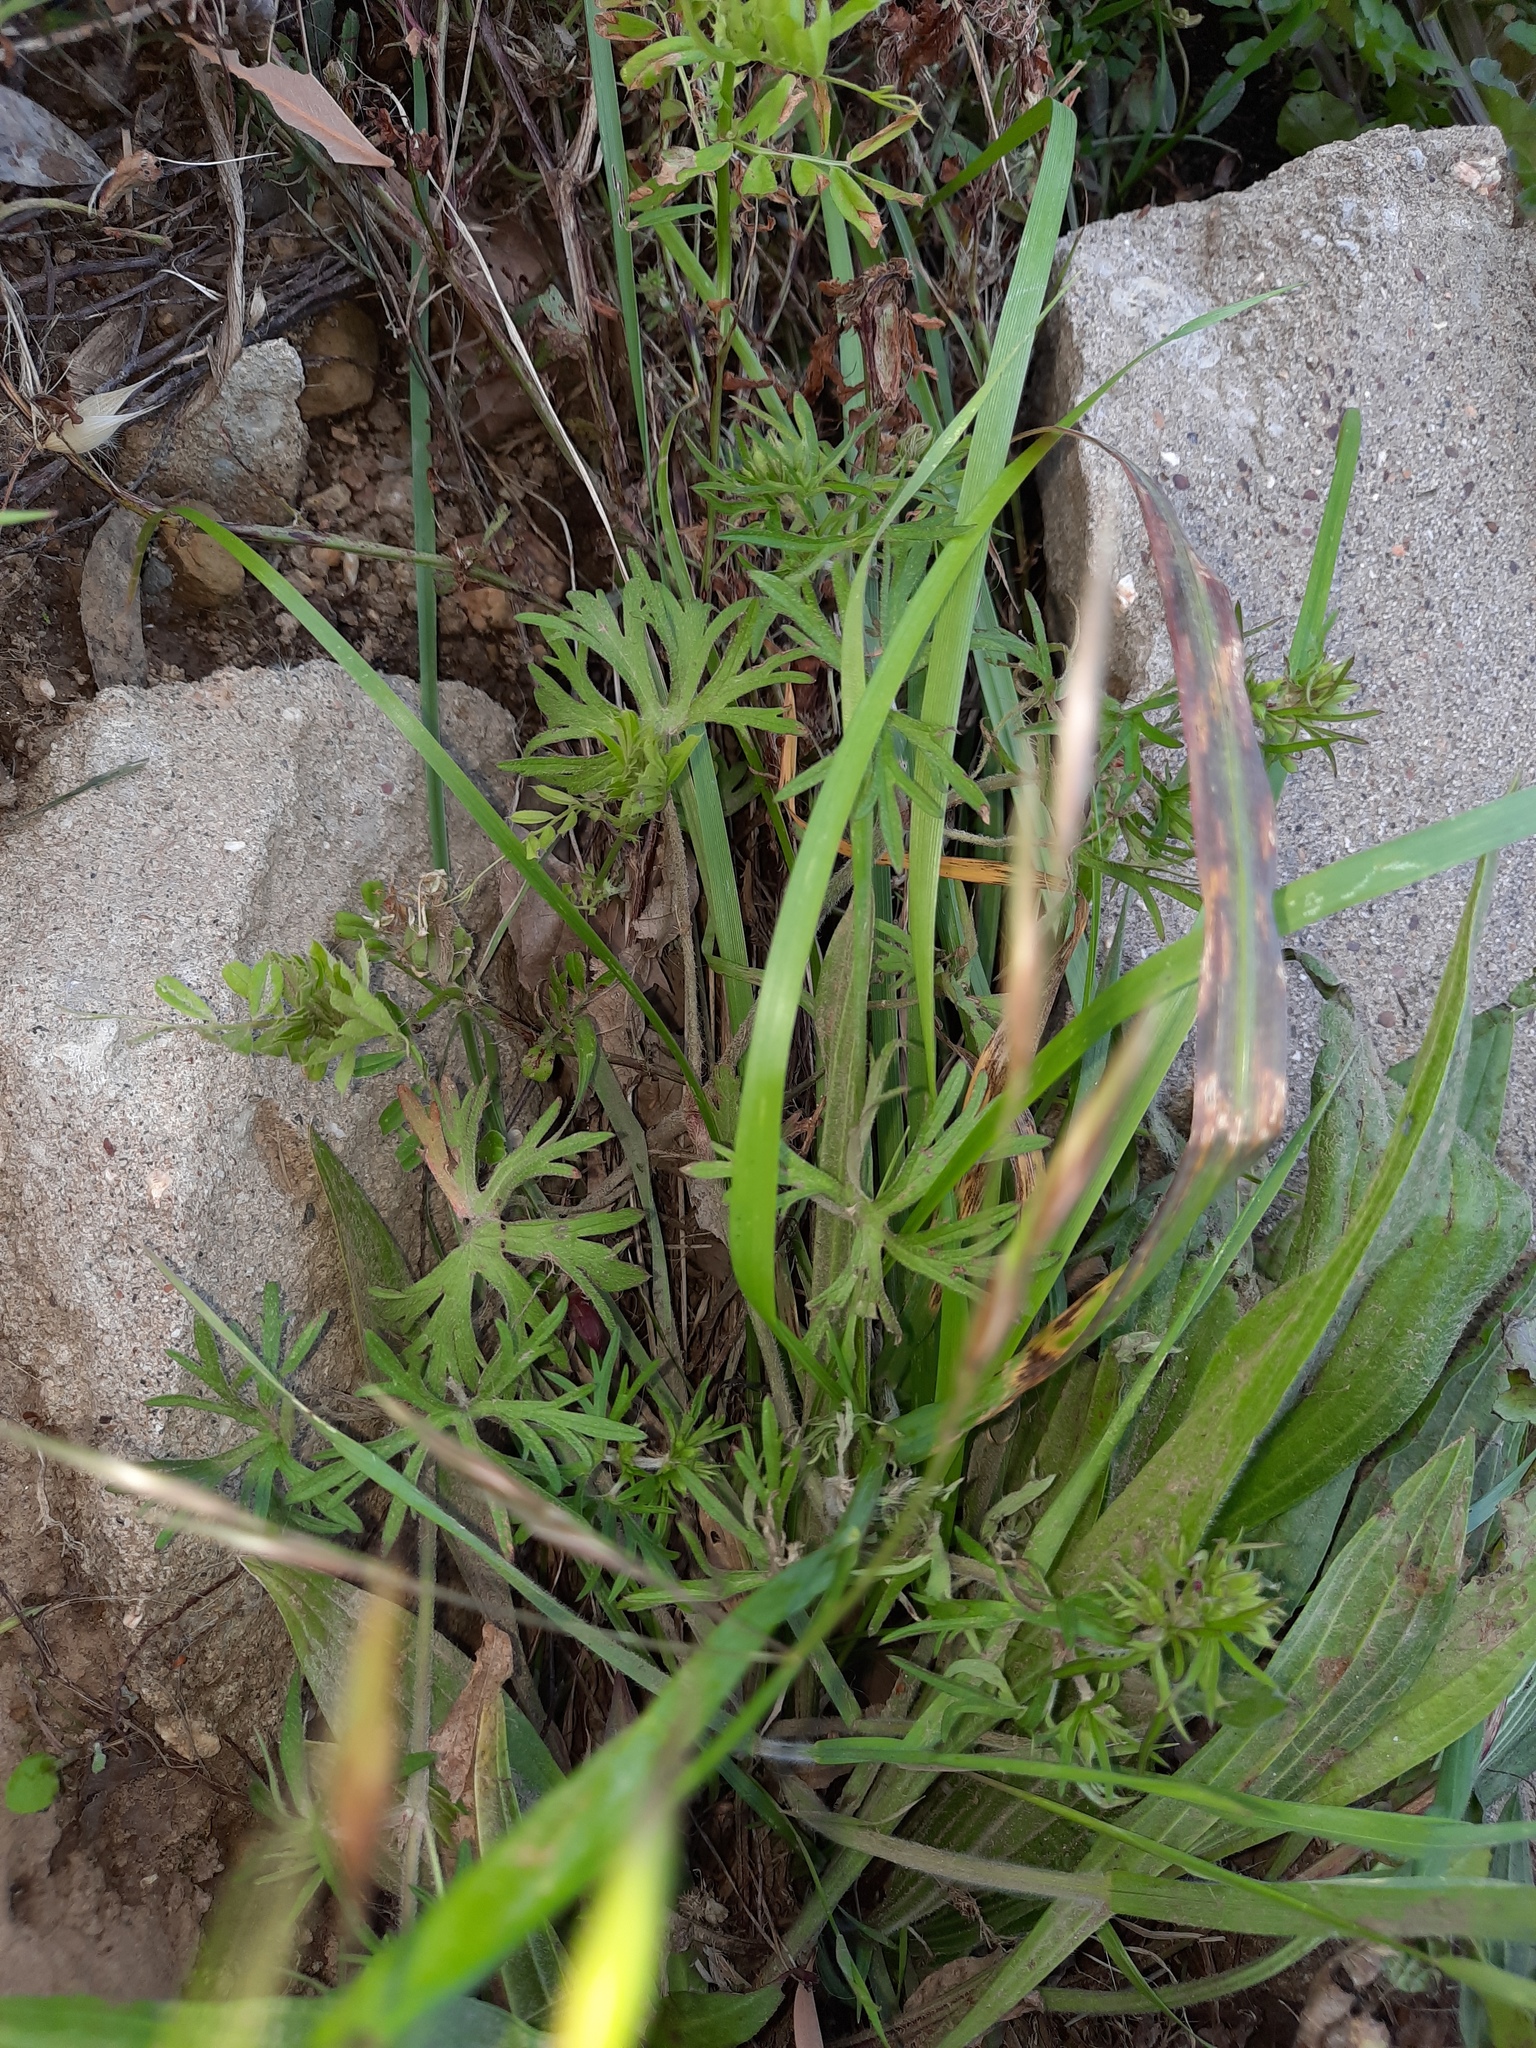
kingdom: Plantae
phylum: Tracheophyta
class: Magnoliopsida
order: Geraniales
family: Geraniaceae
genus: Geranium
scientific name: Geranium dissectum
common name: Cut-leaved crane's-bill
